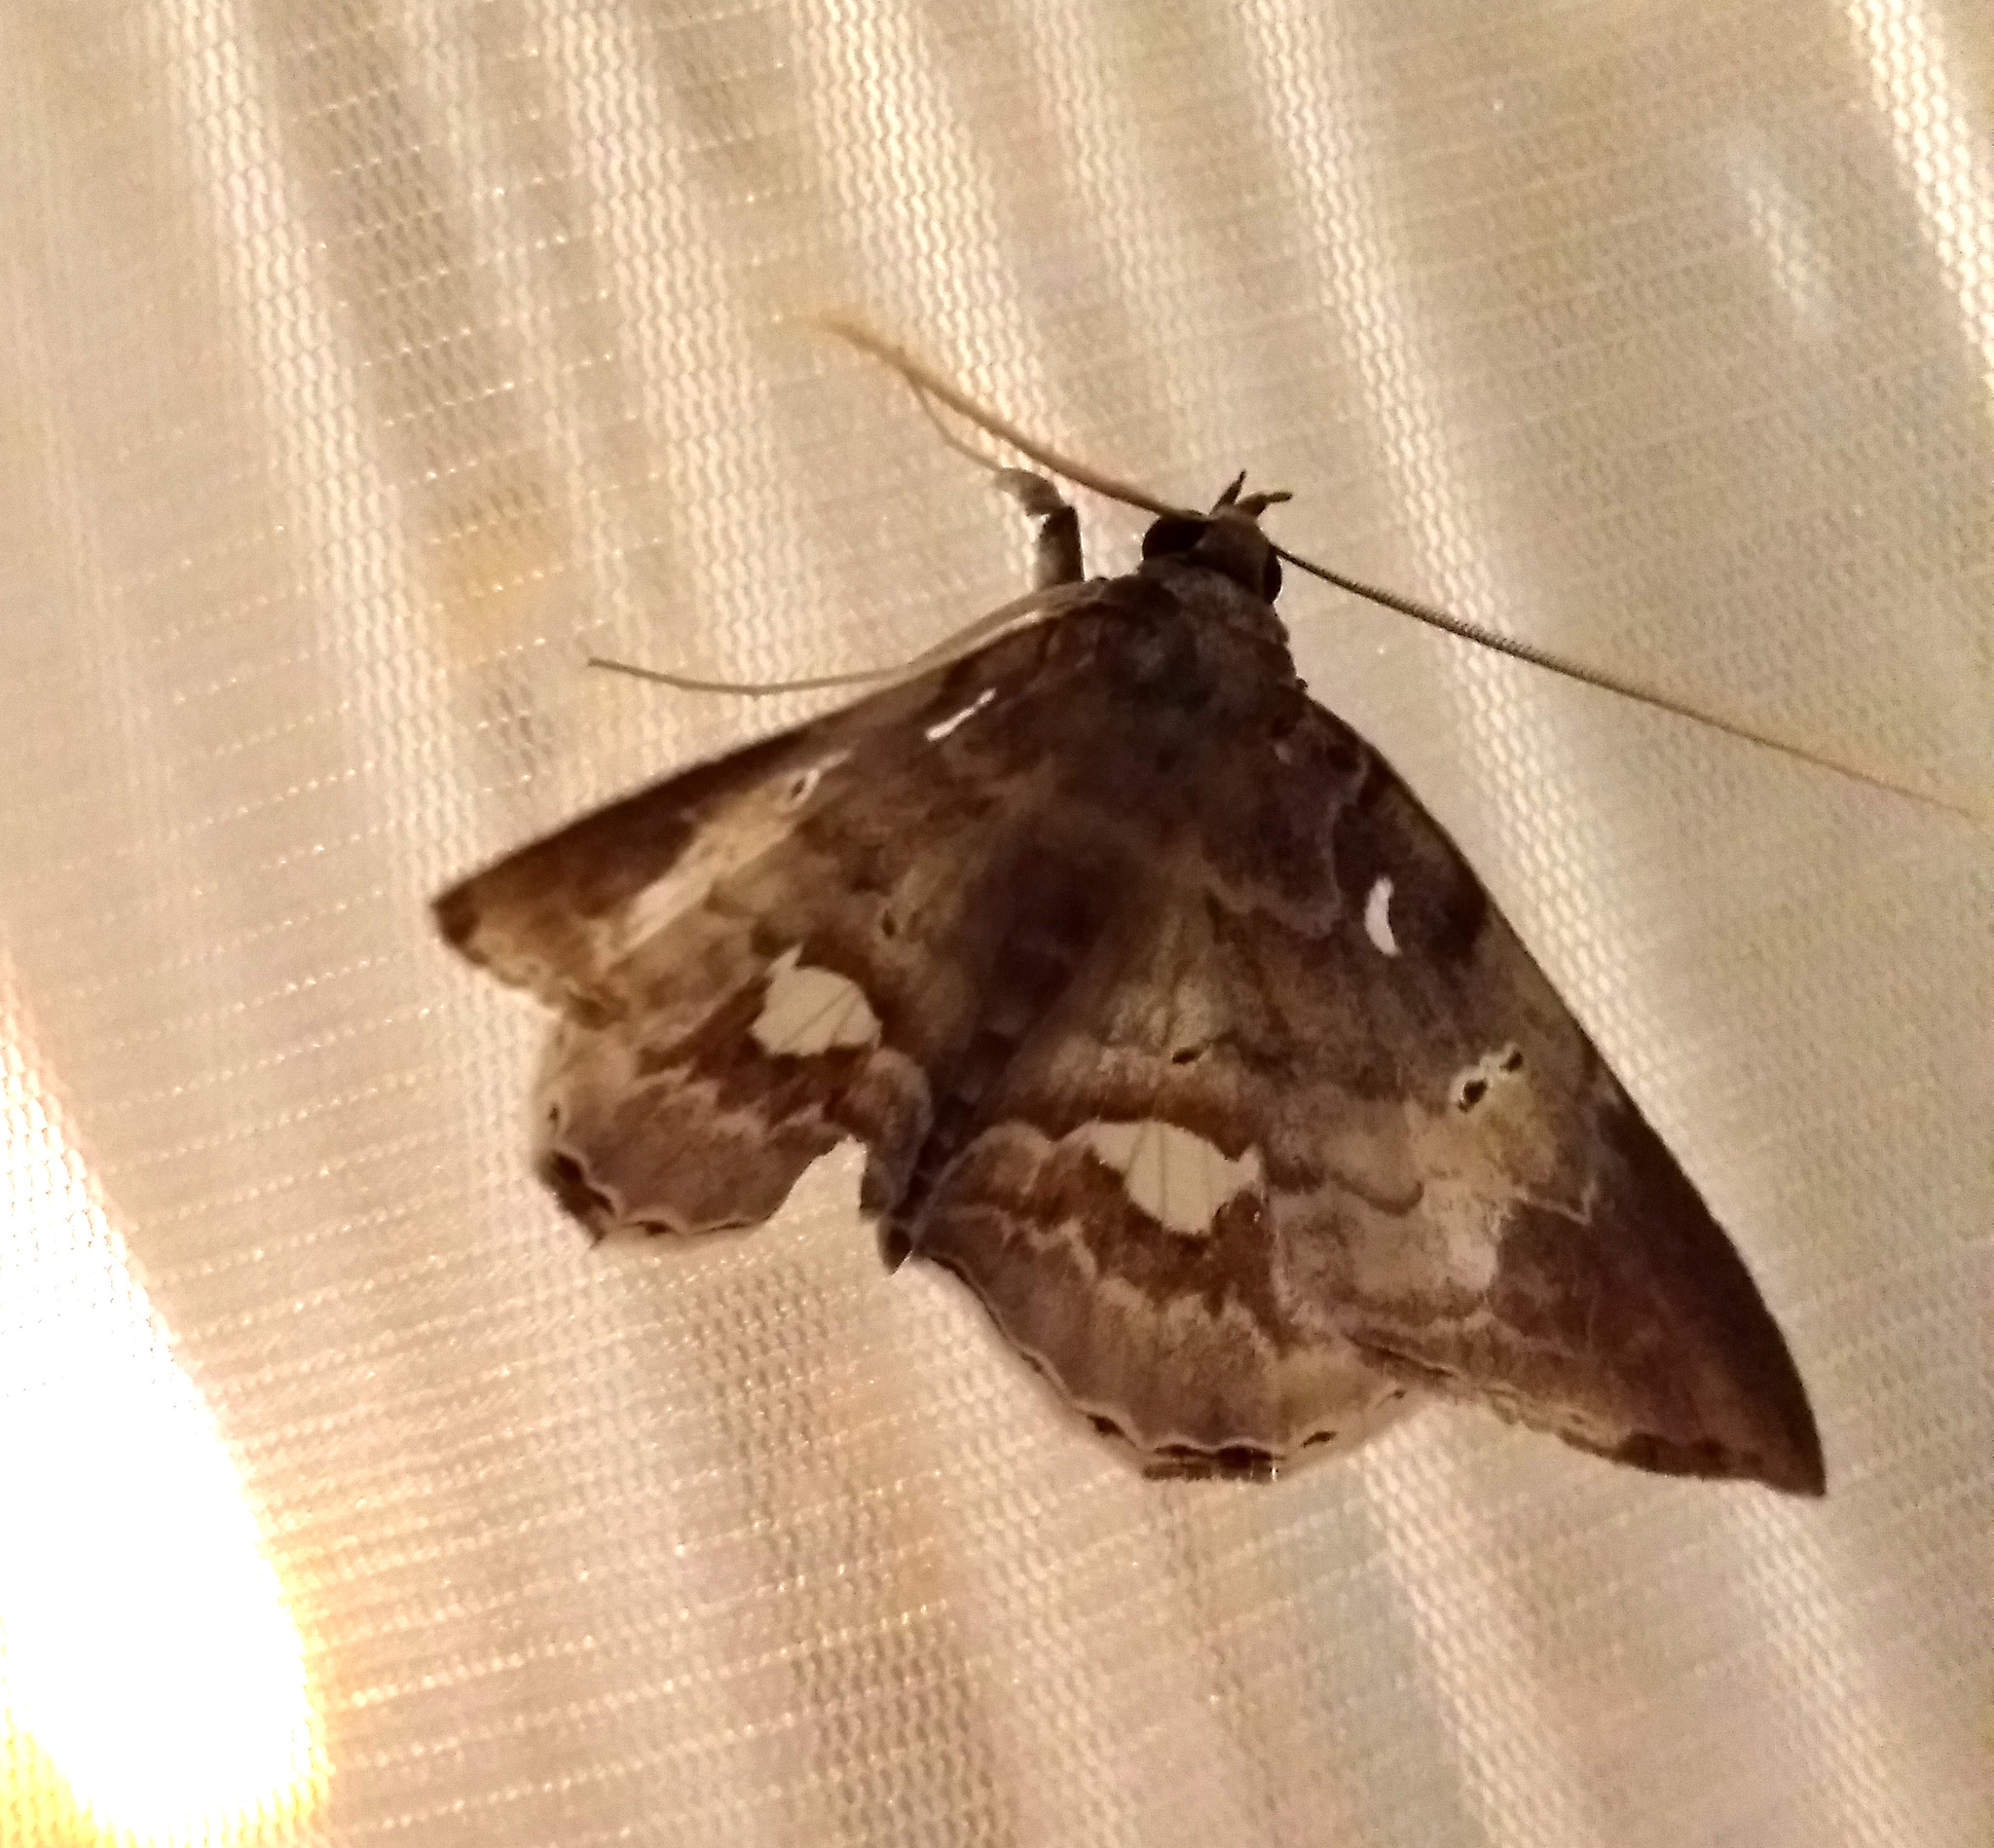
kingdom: Animalia
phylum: Arthropoda
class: Insecta
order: Lepidoptera
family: Erebidae
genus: Macrodes
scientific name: Macrodes cynara
